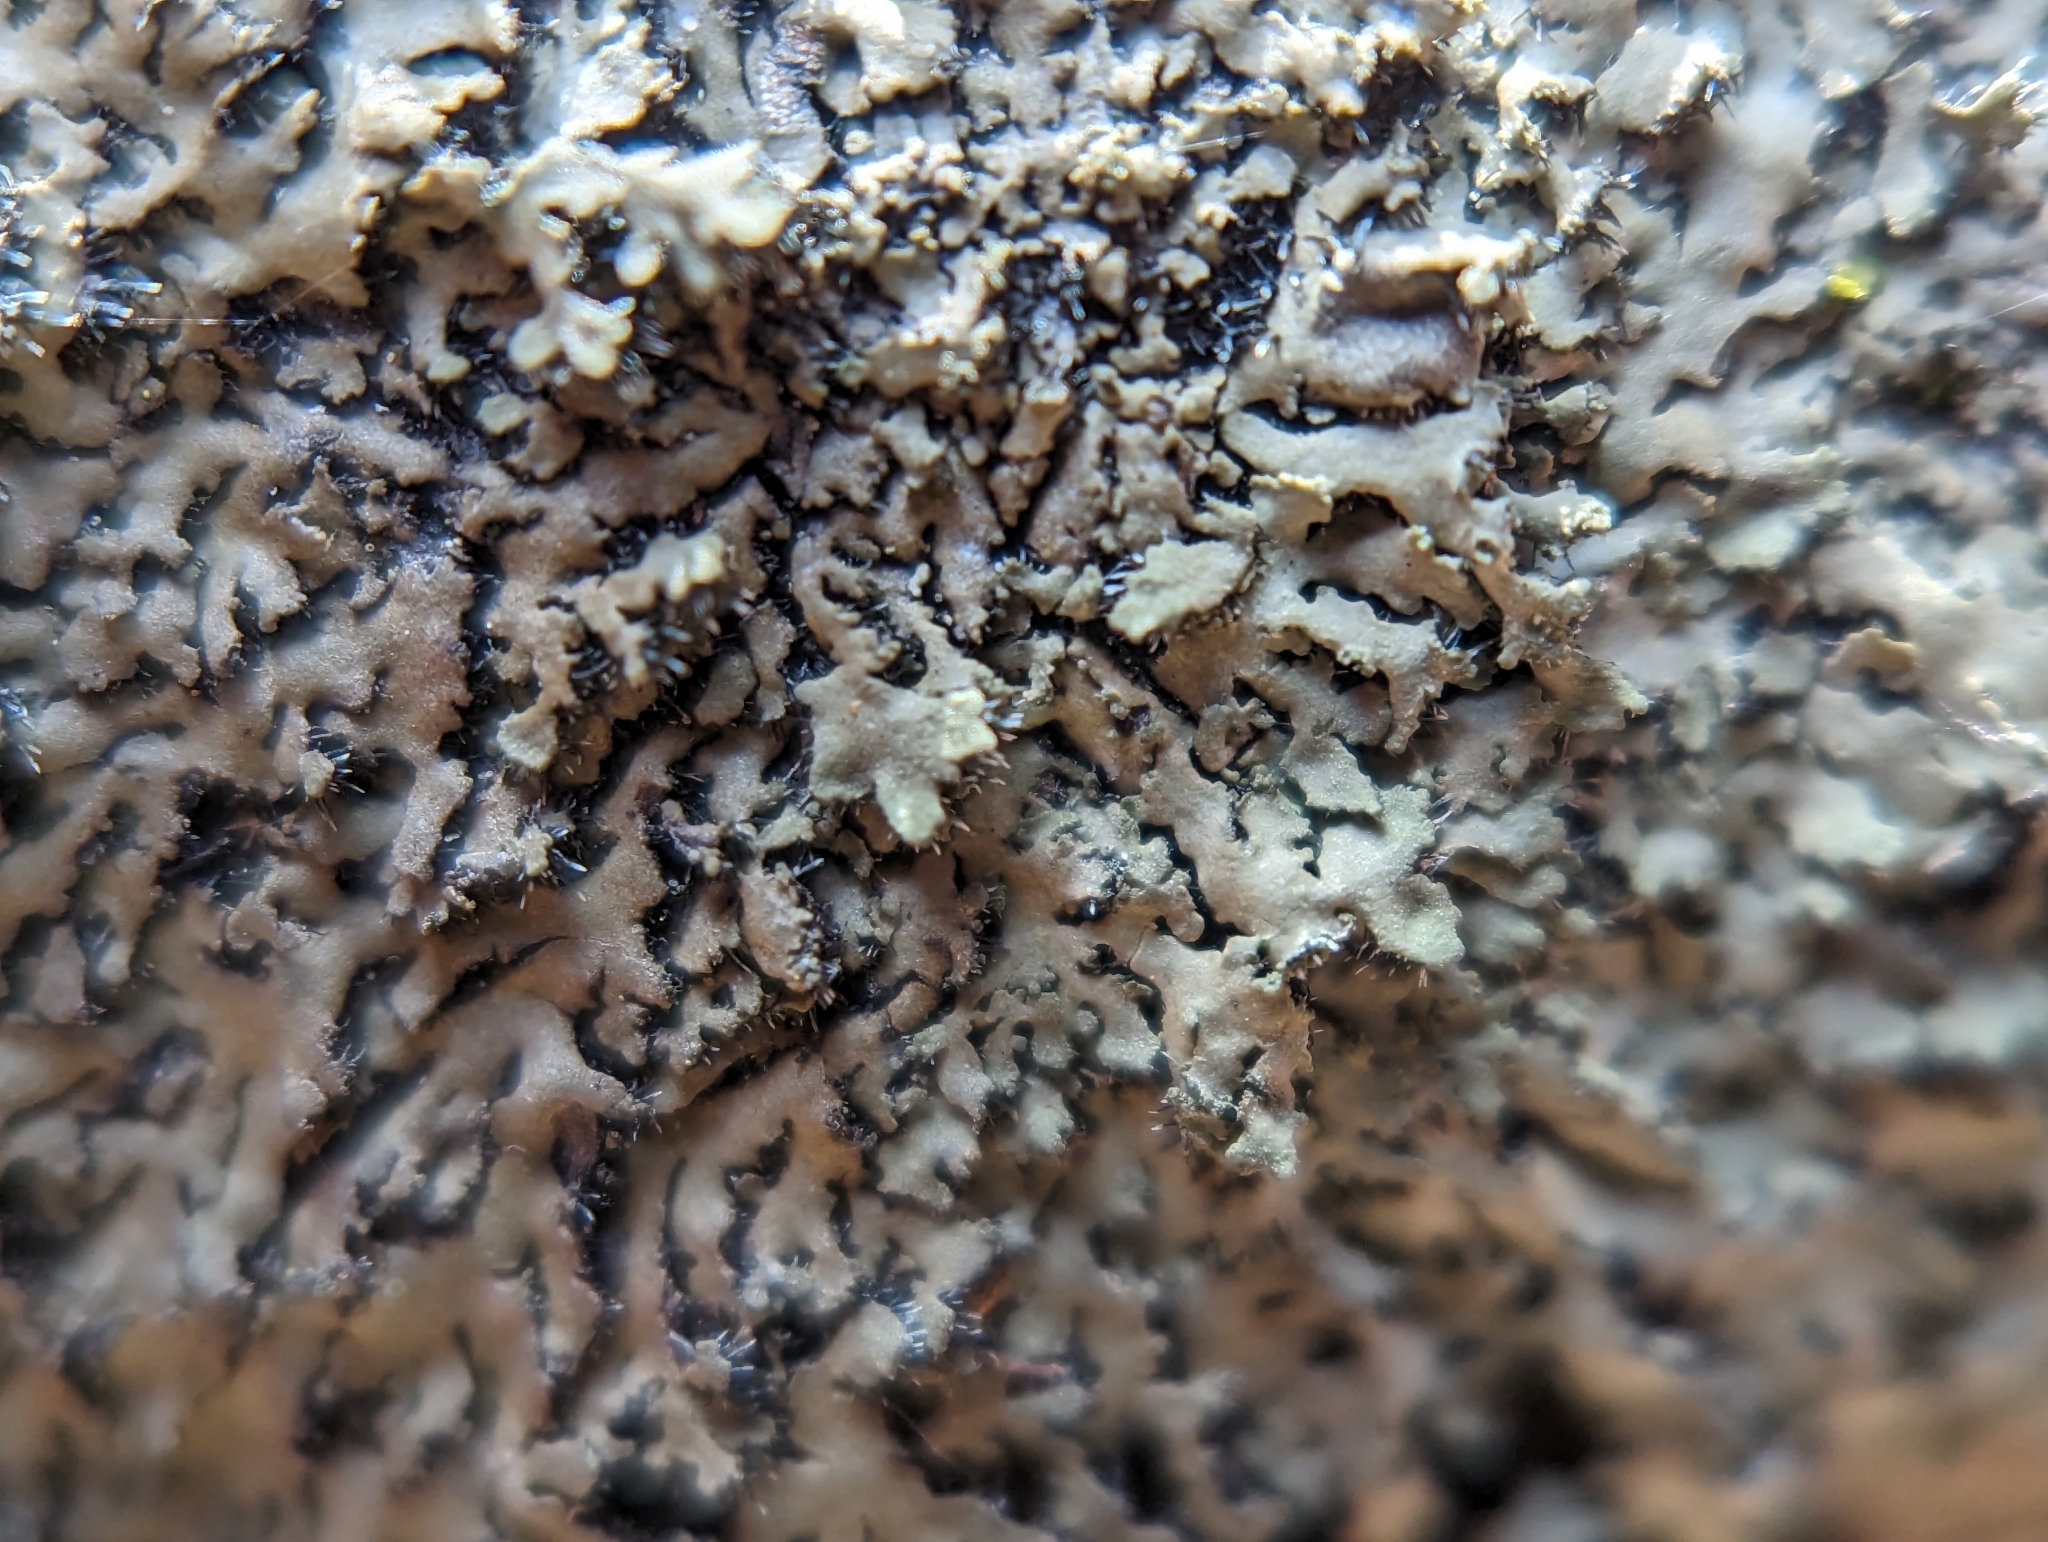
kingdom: Fungi
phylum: Ascomycota
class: Lecanoromycetes
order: Caliciales
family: Physciaceae
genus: Phaeophyscia
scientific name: Phaeophyscia rubropulchra
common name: Orange-cored shadow lichen
